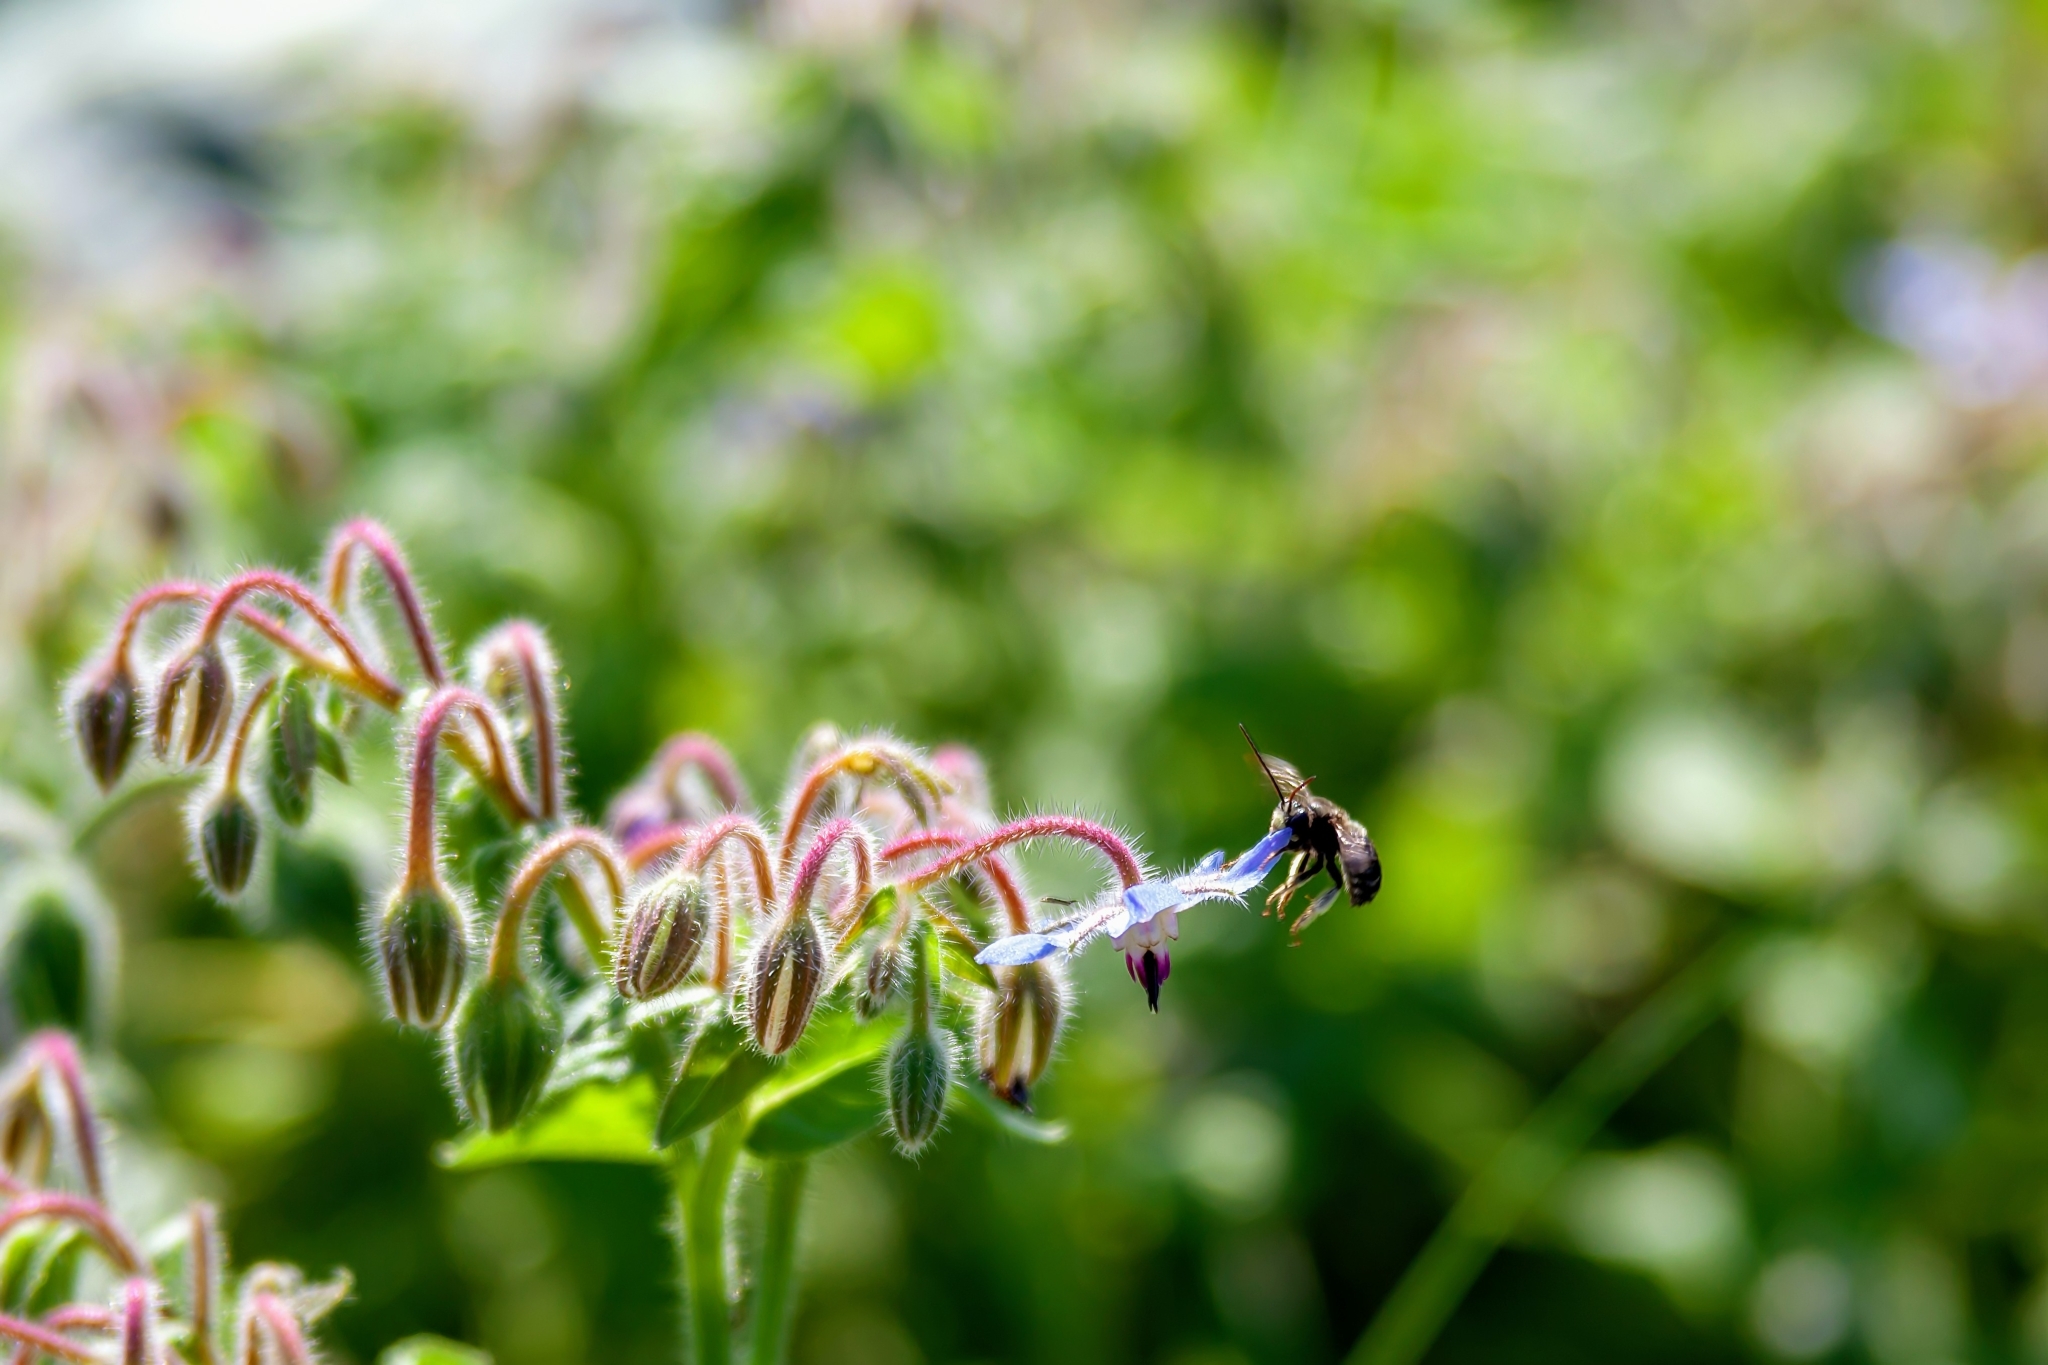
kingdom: Animalia
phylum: Arthropoda
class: Insecta
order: Hymenoptera
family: Apidae
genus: Melissodes
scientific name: Melissodes bimaculatus
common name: Two-spotted long-horned bee
